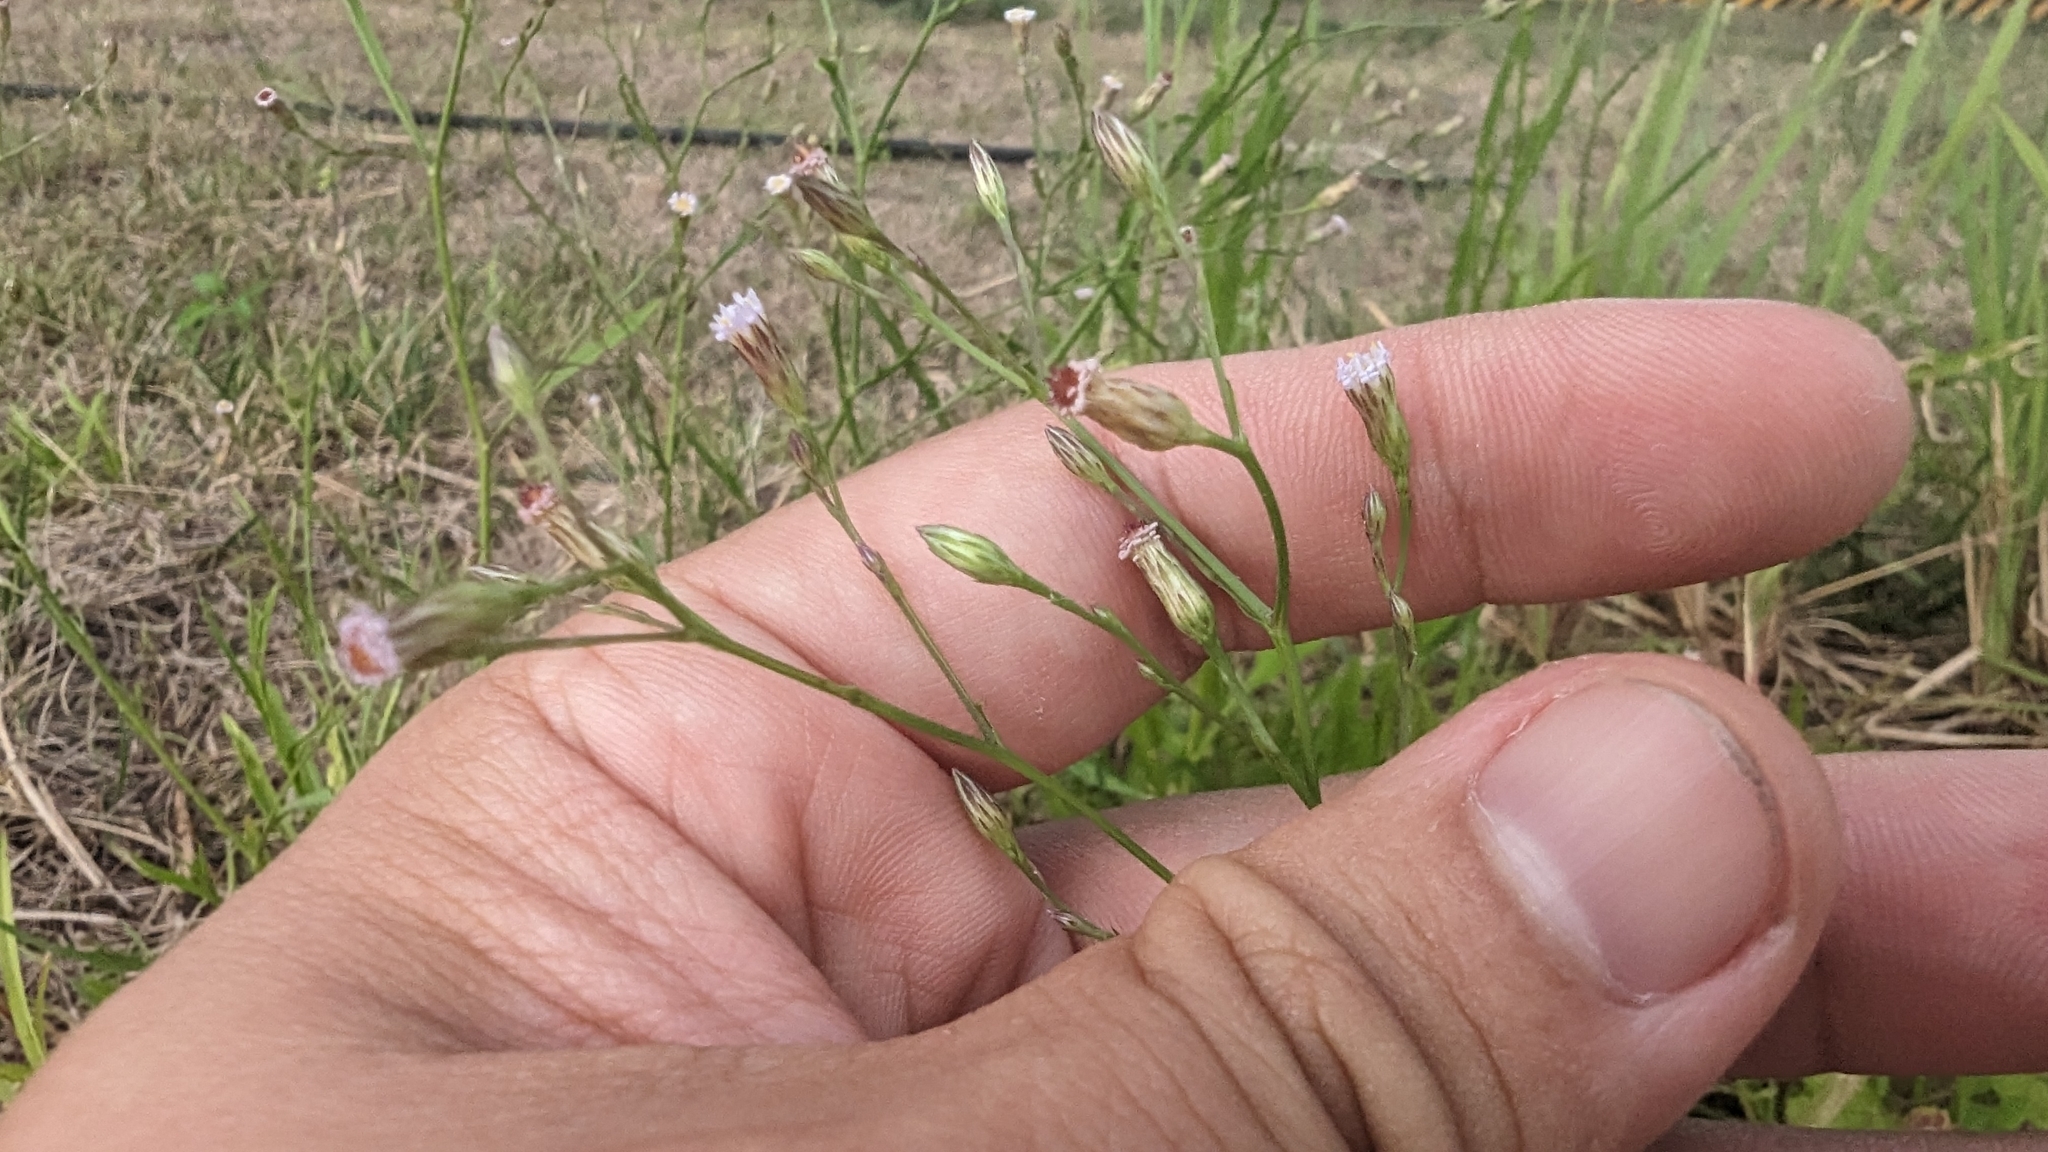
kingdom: Plantae
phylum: Tracheophyta
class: Magnoliopsida
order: Asterales
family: Asteraceae
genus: Symphyotrichum
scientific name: Symphyotrichum subulatum
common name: Annual saltmarsh aster
